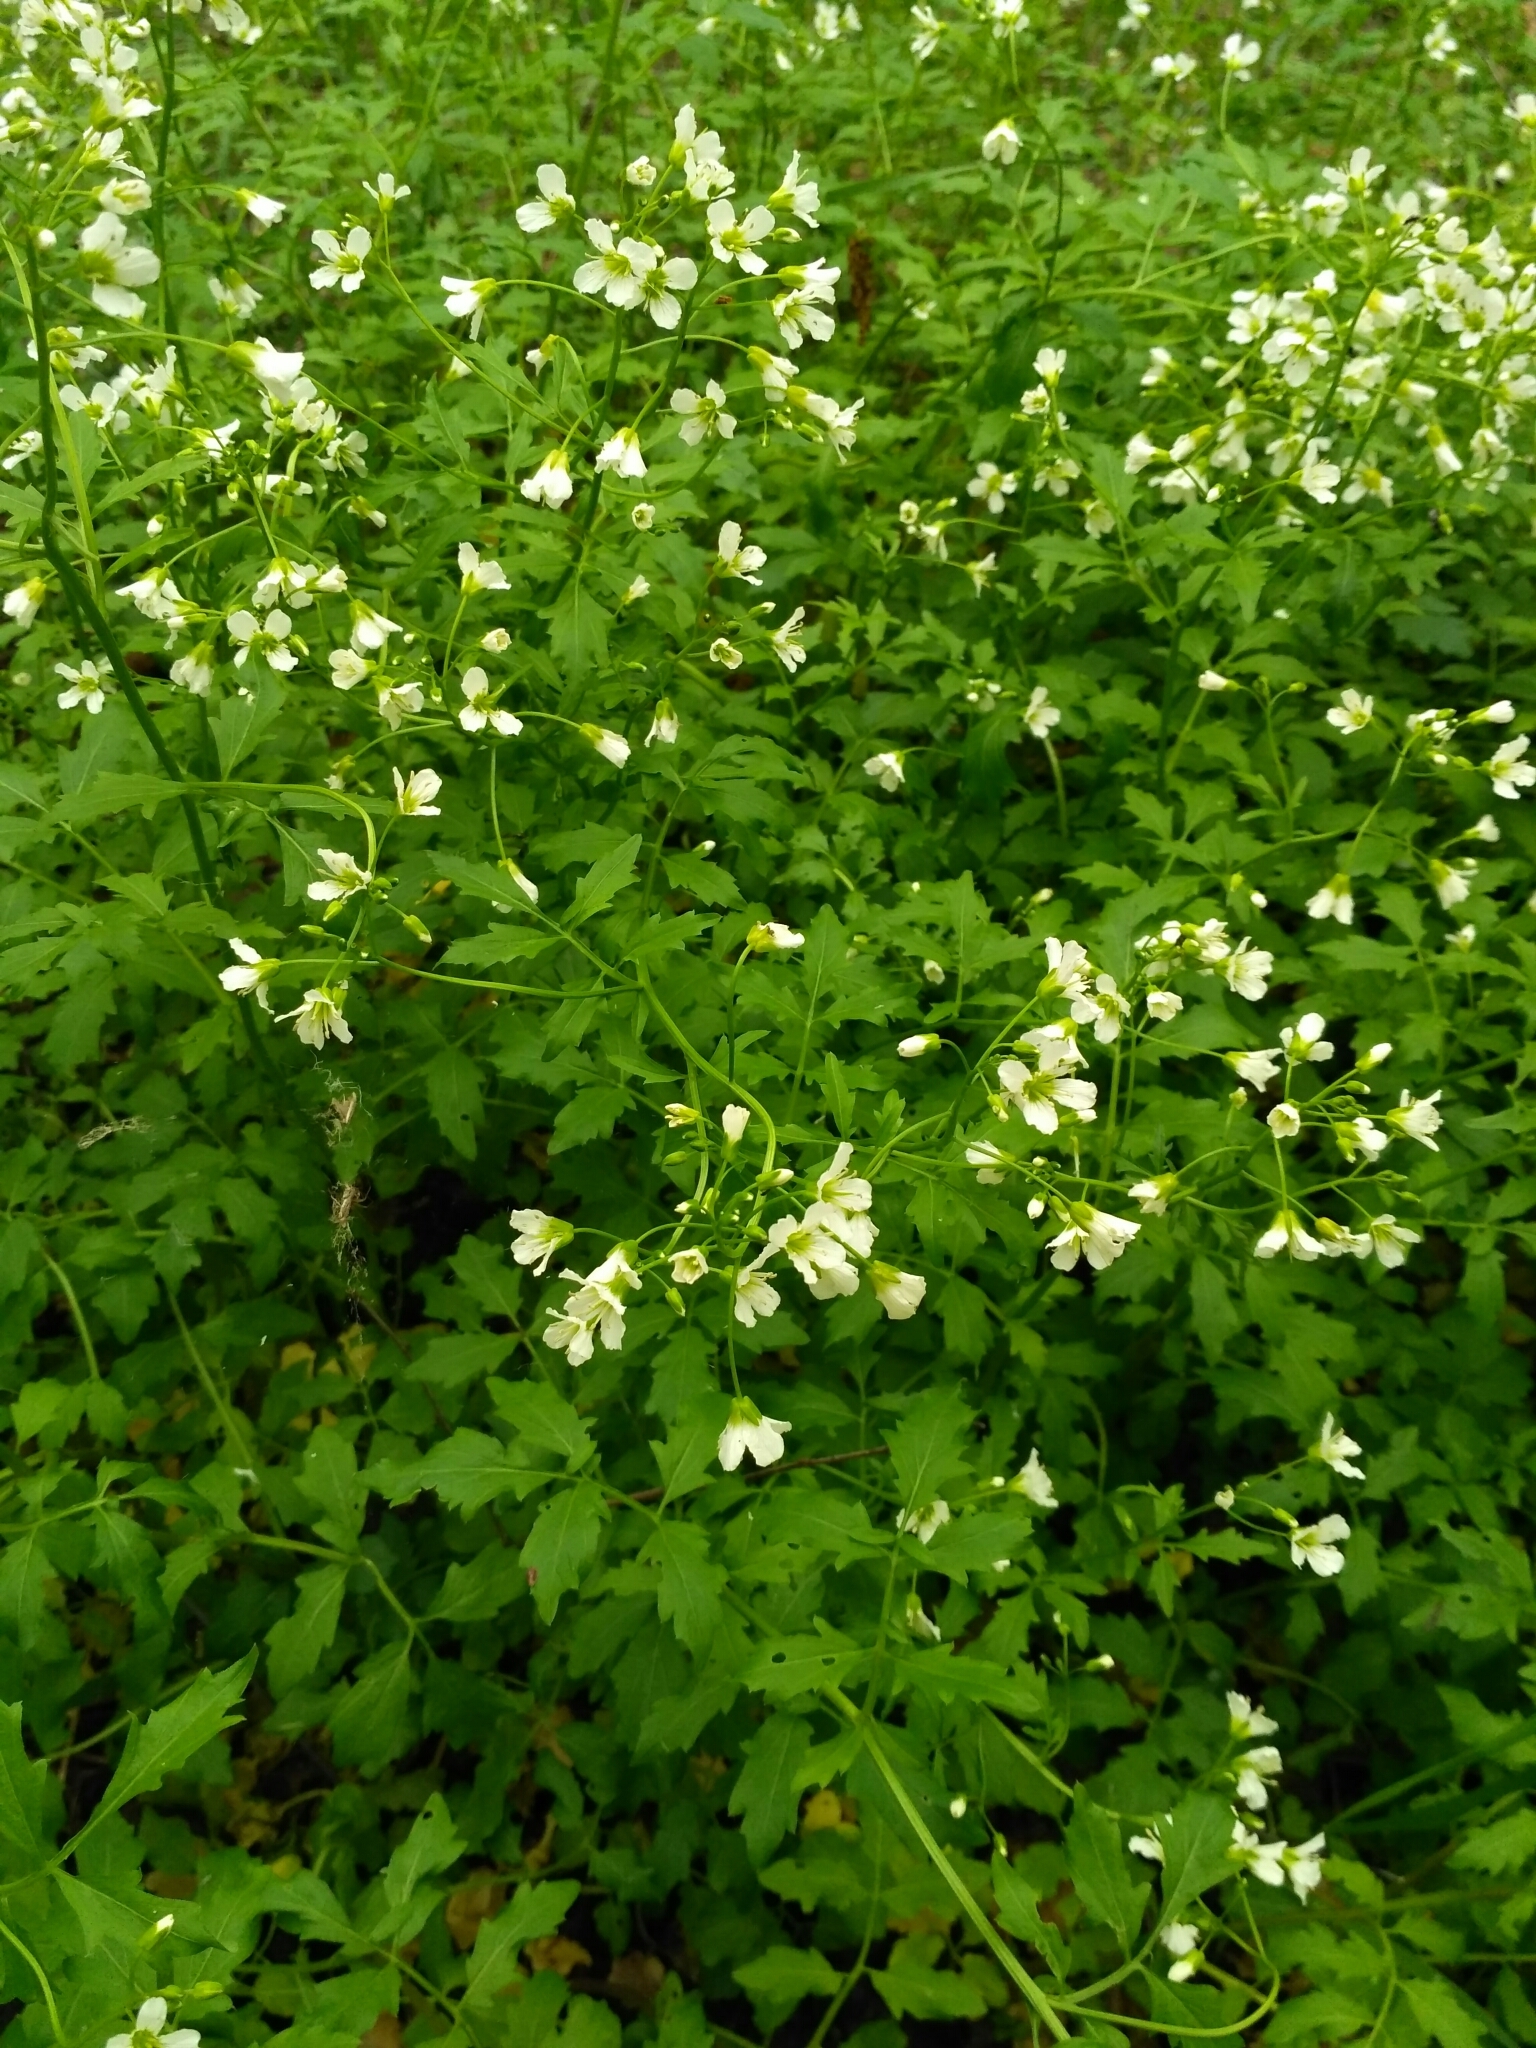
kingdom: Plantae
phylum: Tracheophyta
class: Magnoliopsida
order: Brassicales
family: Brassicaceae
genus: Cardamine
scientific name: Cardamine amara
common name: Large bitter-cress
